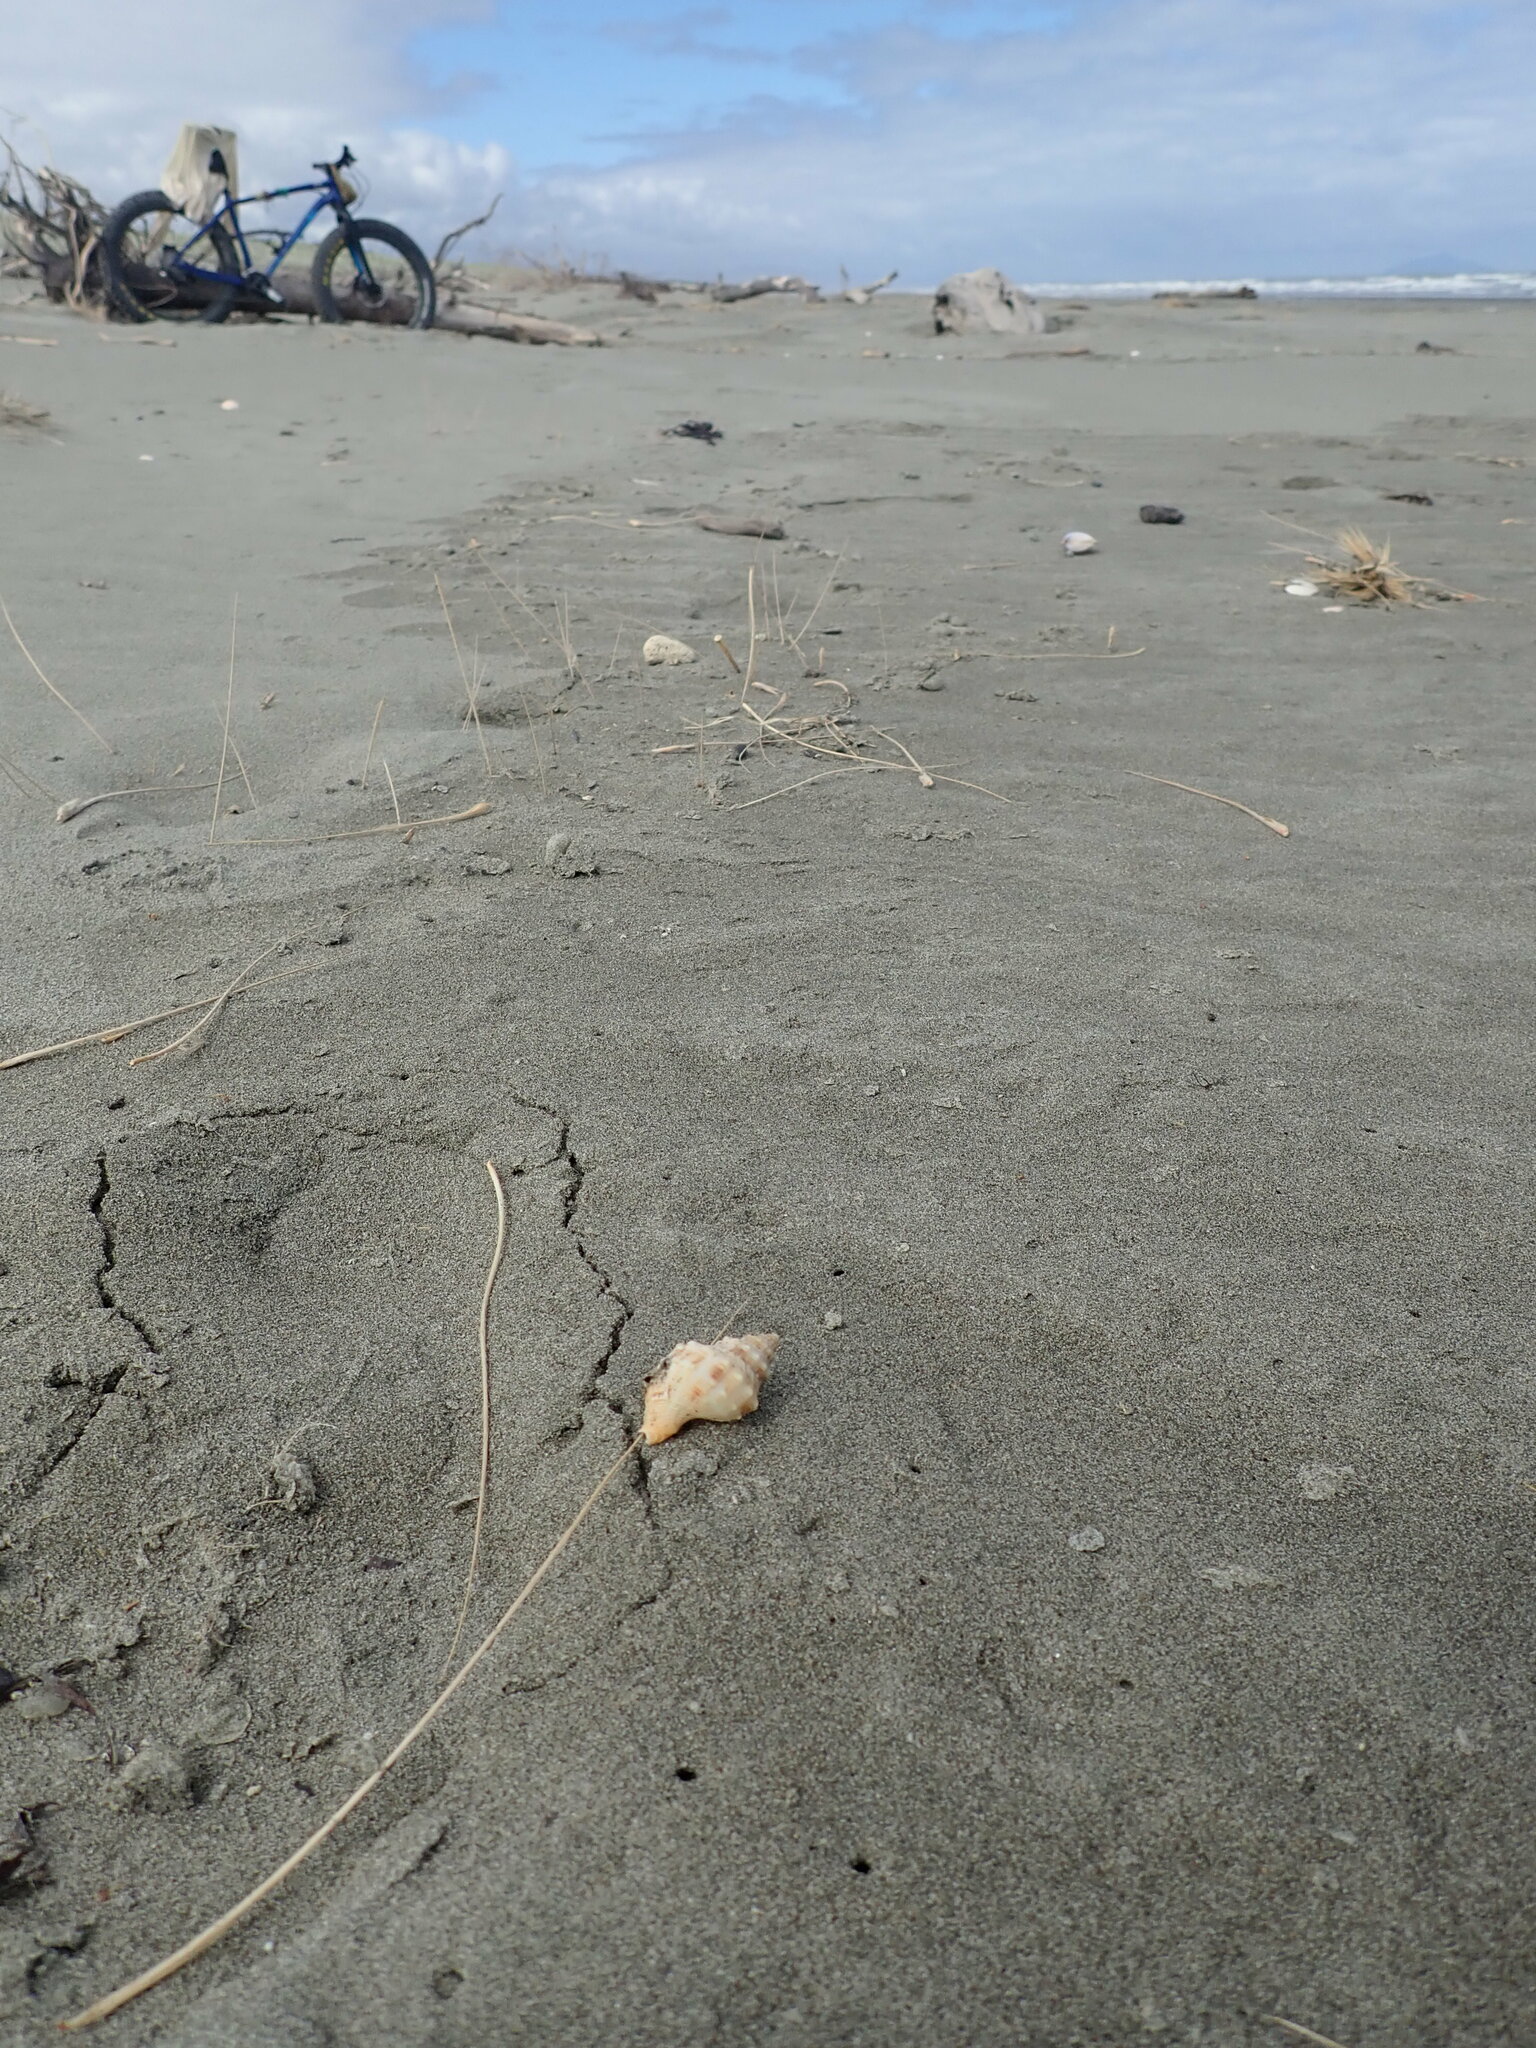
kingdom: Animalia
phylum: Mollusca
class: Gastropoda
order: Neogastropoda
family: Prosiphonidae
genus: Austrofusus
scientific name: Austrofusus glans
